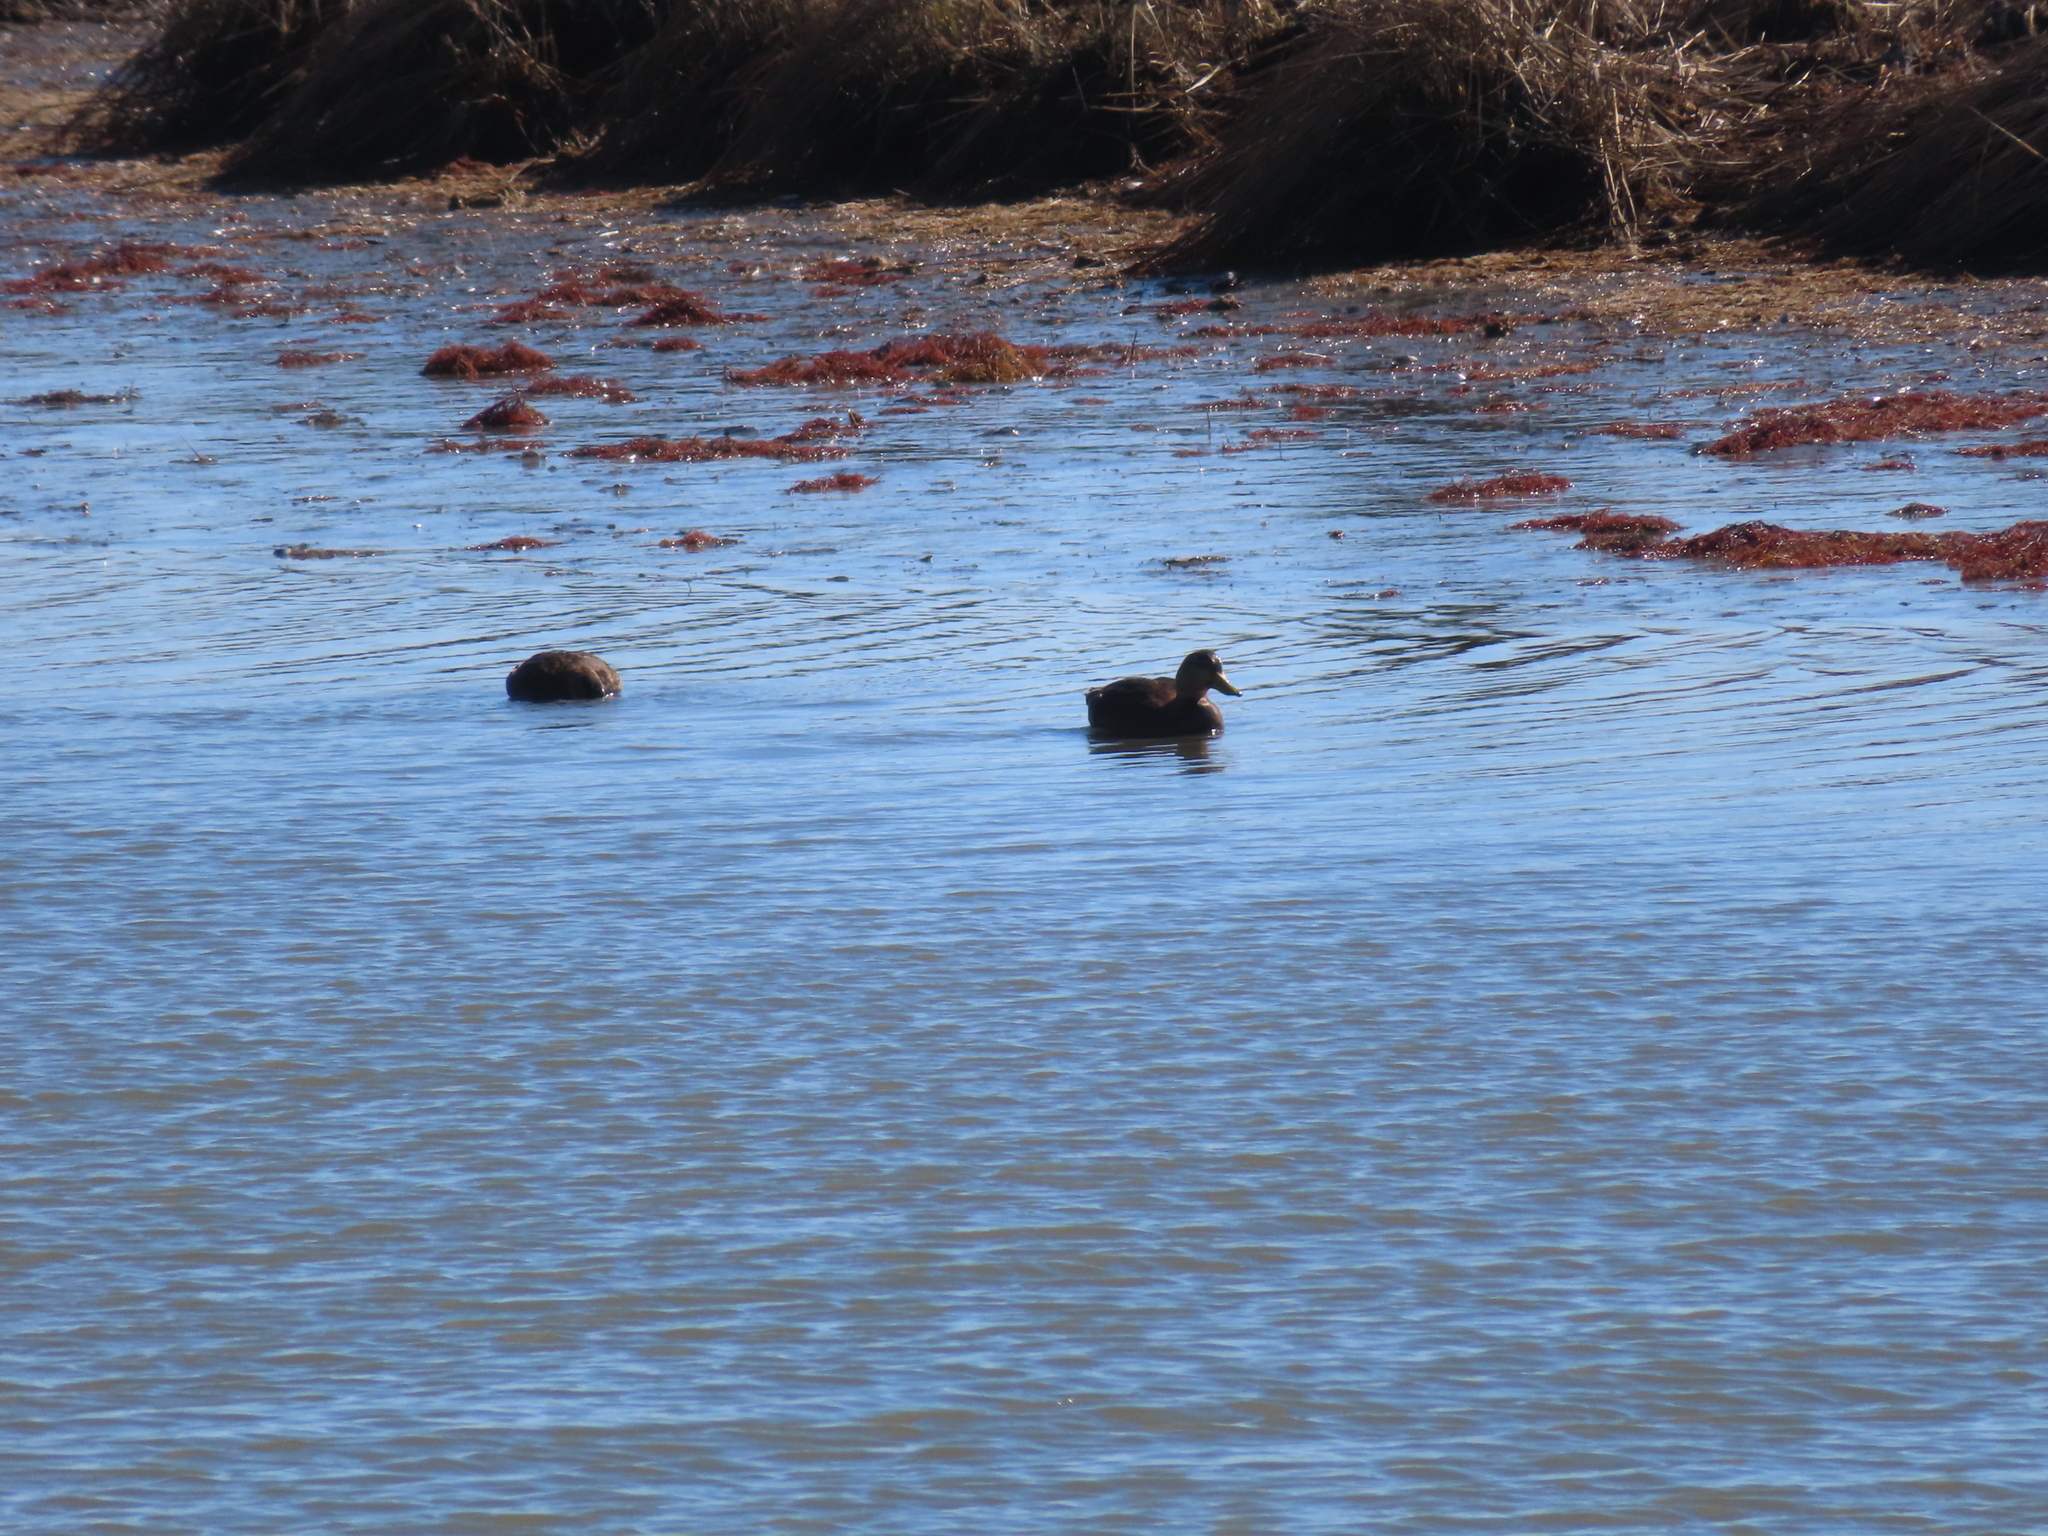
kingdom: Animalia
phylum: Chordata
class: Aves
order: Anseriformes
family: Anatidae
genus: Anas
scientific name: Anas rubripes
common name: American black duck
